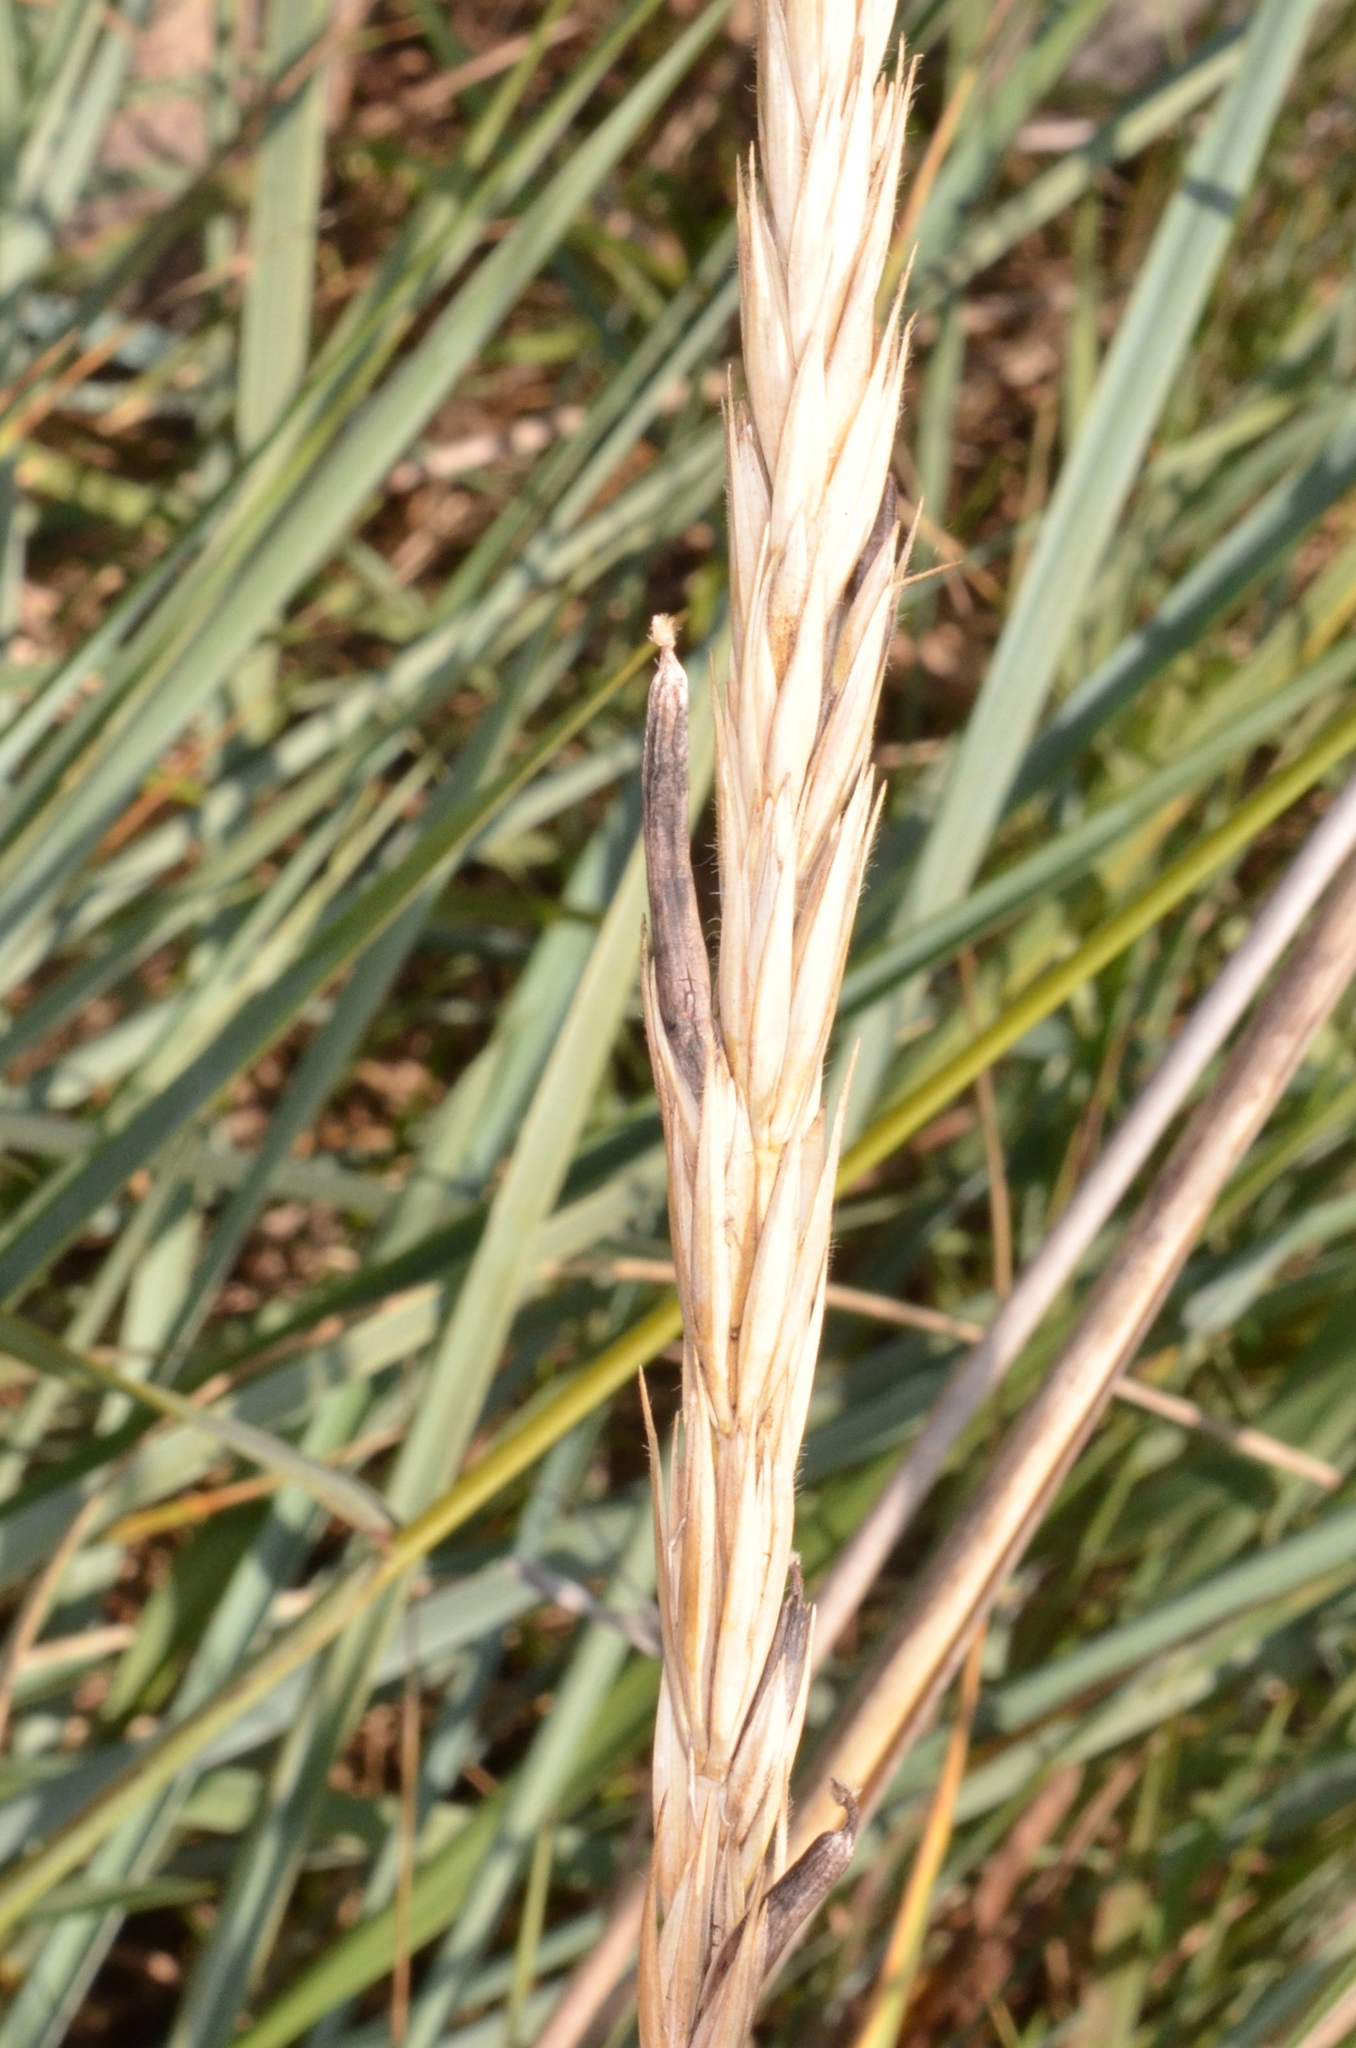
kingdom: Fungi
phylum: Ascomycota
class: Sordariomycetes
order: Hypocreales
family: Clavicipitaceae
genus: Claviceps
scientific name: Claviceps purpurea
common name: Rye ergot
